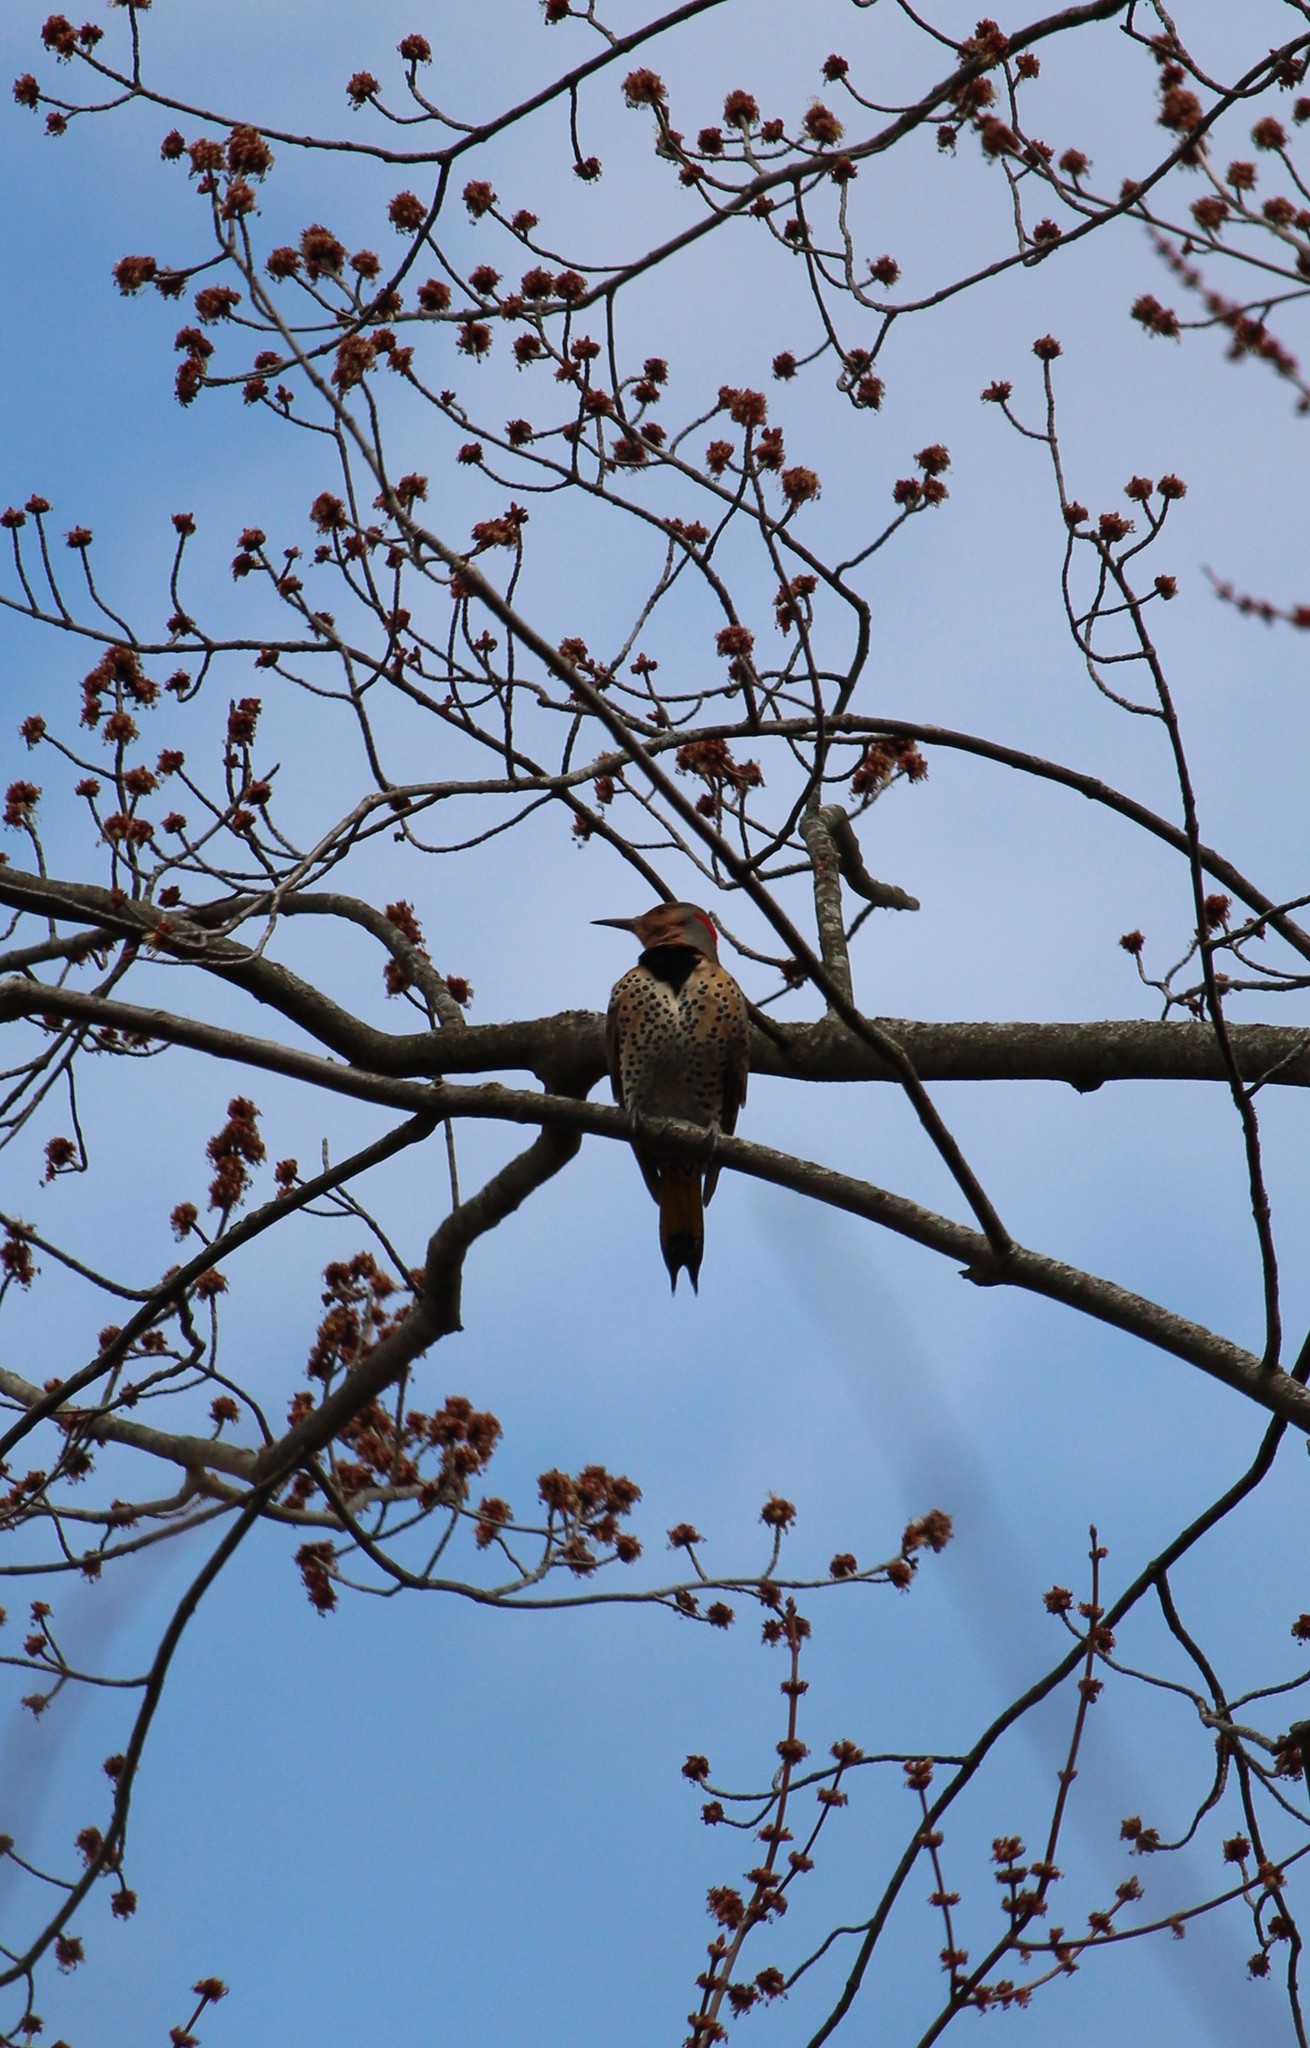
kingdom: Animalia
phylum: Chordata
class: Aves
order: Piciformes
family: Picidae
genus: Colaptes
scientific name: Colaptes auratus
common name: Northern flicker
